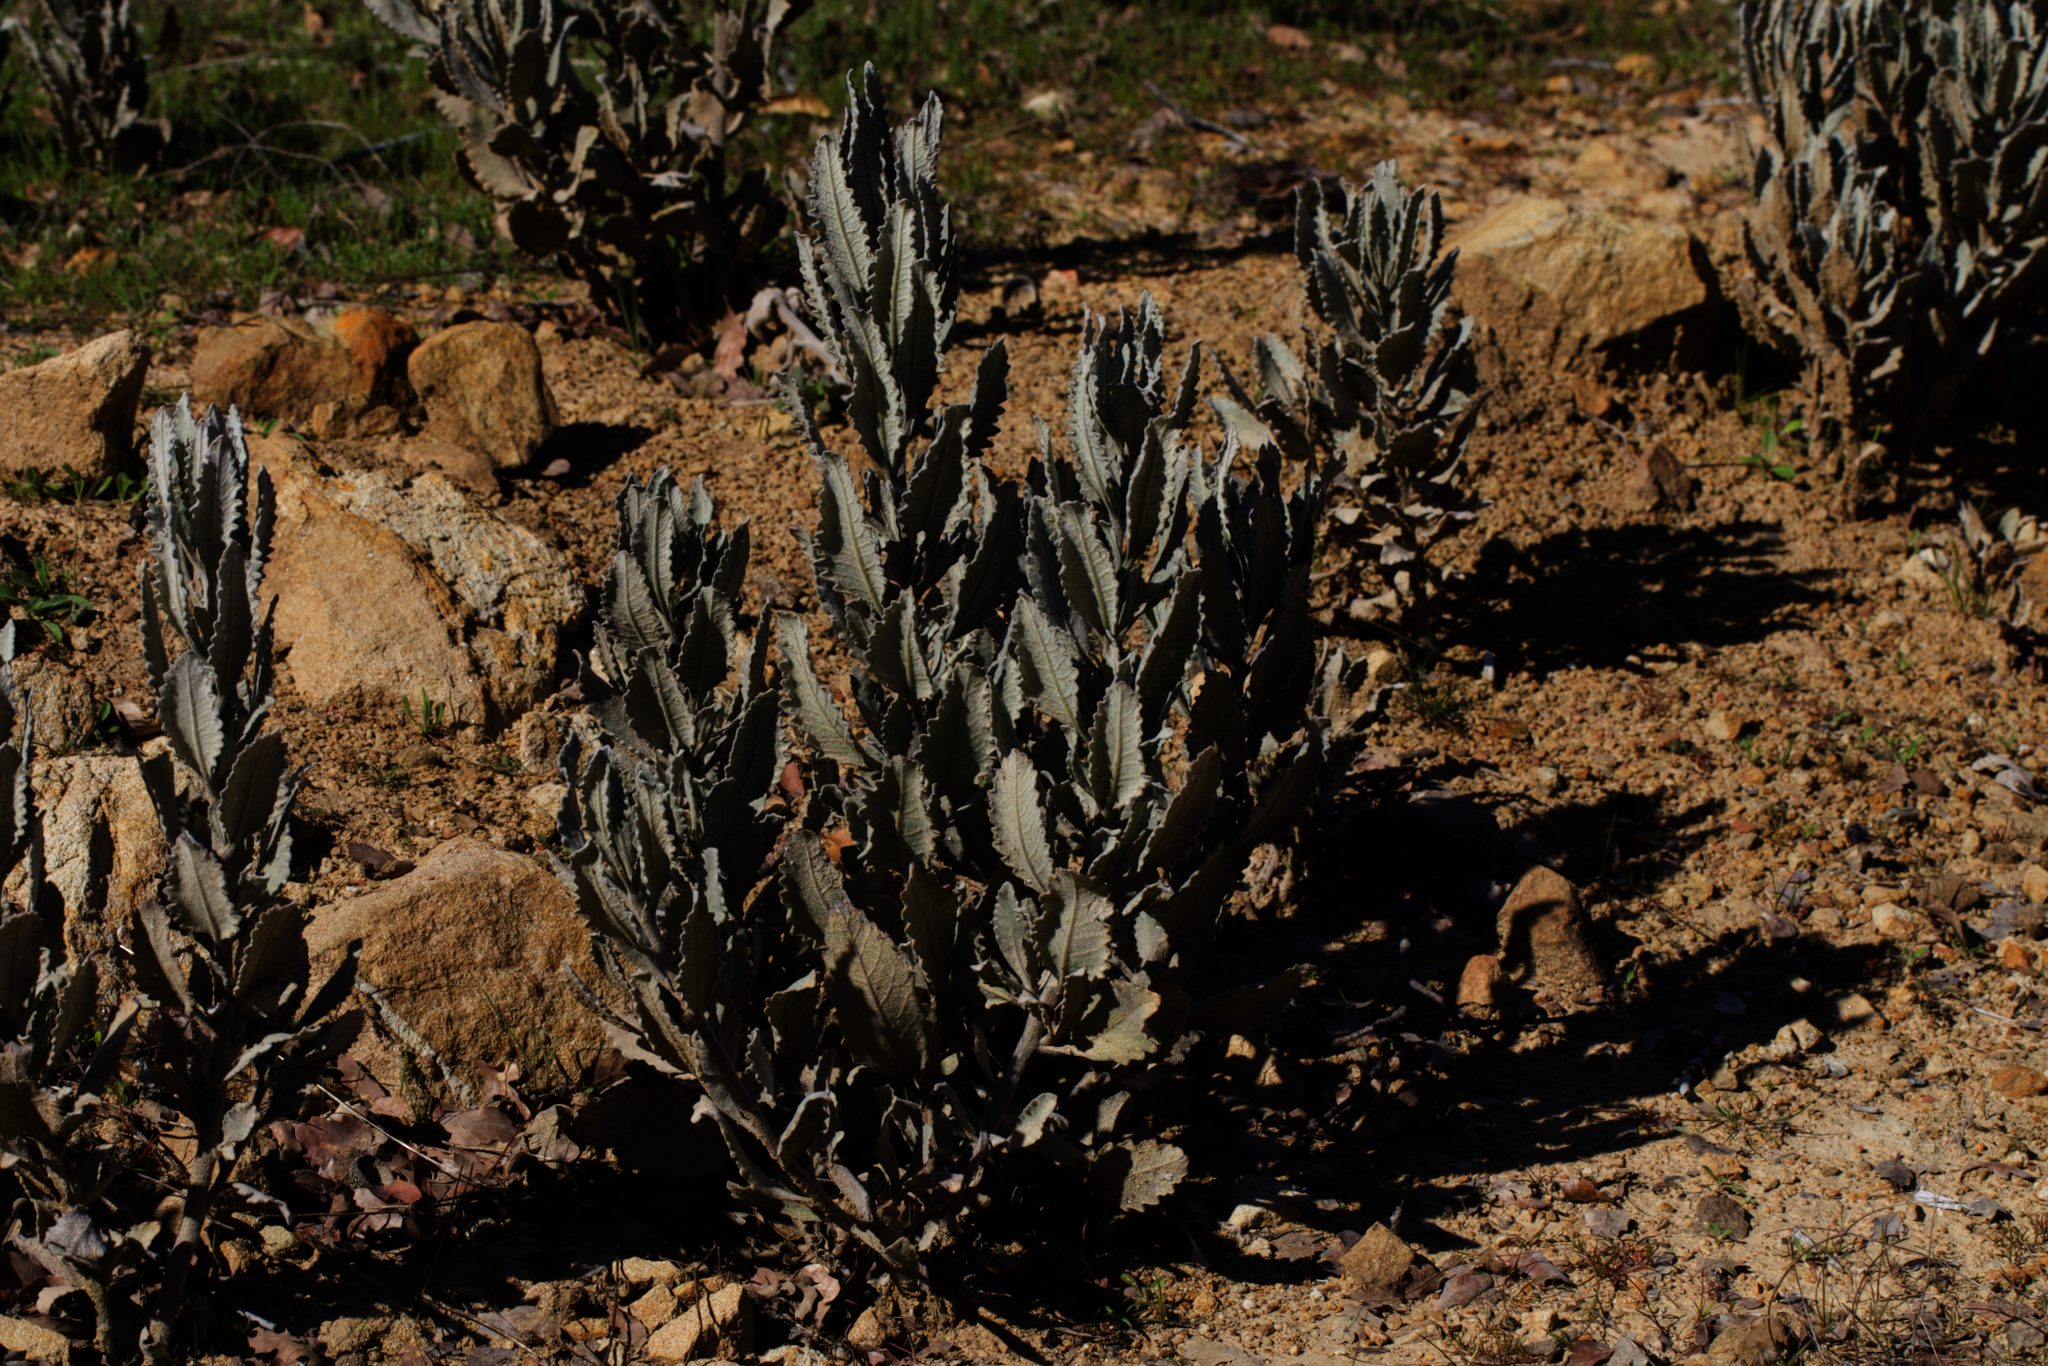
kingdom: Plantae
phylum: Tracheophyta
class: Magnoliopsida
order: Boraginales
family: Namaceae
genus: Eriodictyon
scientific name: Eriodictyon tomentosum
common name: Woolly yerba-santa
